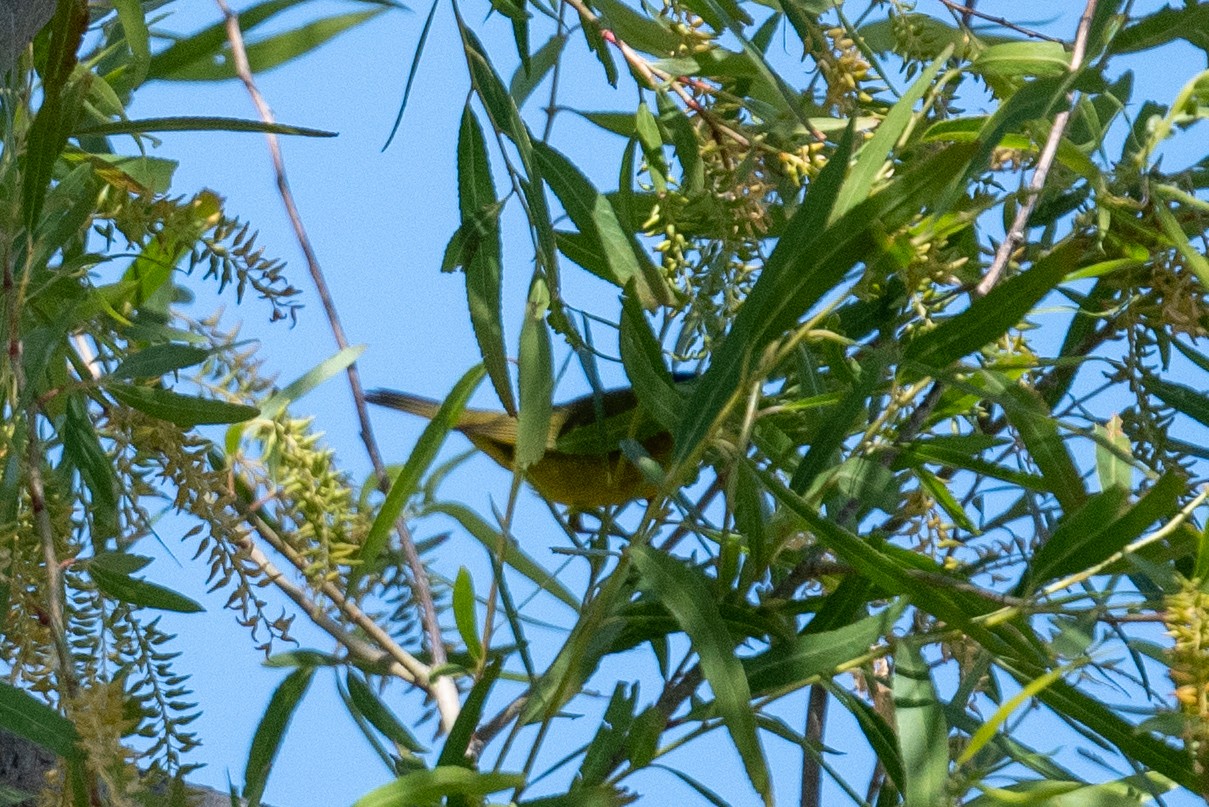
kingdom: Animalia
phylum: Chordata
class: Aves
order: Passeriformes
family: Parulidae
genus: Cardellina
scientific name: Cardellina pusilla
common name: Wilson's warbler
